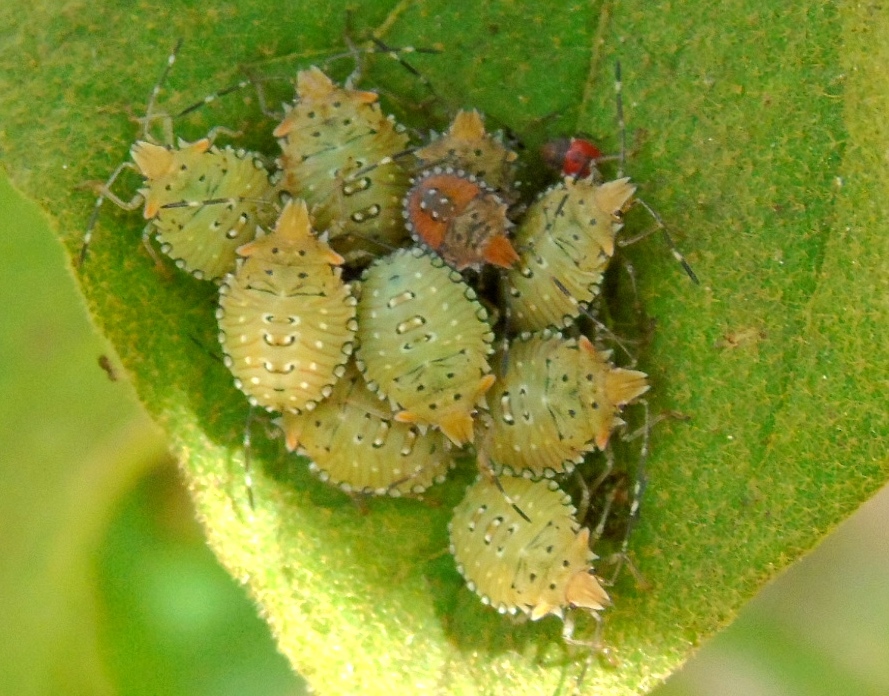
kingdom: Animalia
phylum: Arthropoda
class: Insecta
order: Hemiptera
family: Pentatomidae
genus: Arvelius
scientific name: Arvelius
